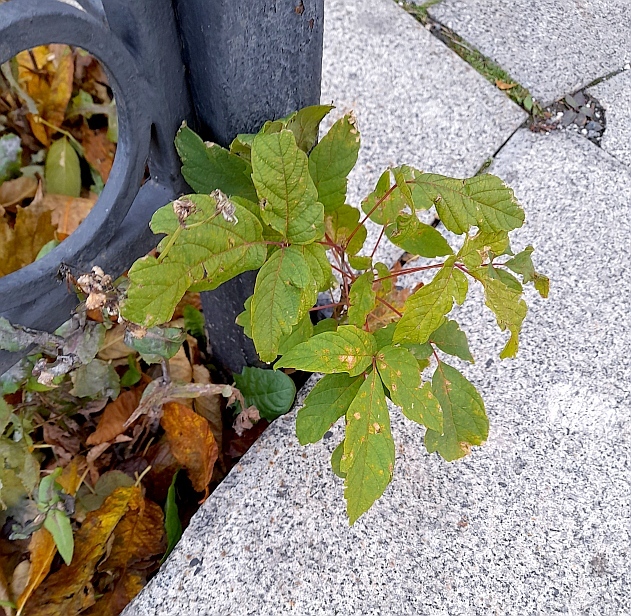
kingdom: Plantae
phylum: Tracheophyta
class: Magnoliopsida
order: Sapindales
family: Sapindaceae
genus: Acer
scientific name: Acer negundo
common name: Ashleaf maple
